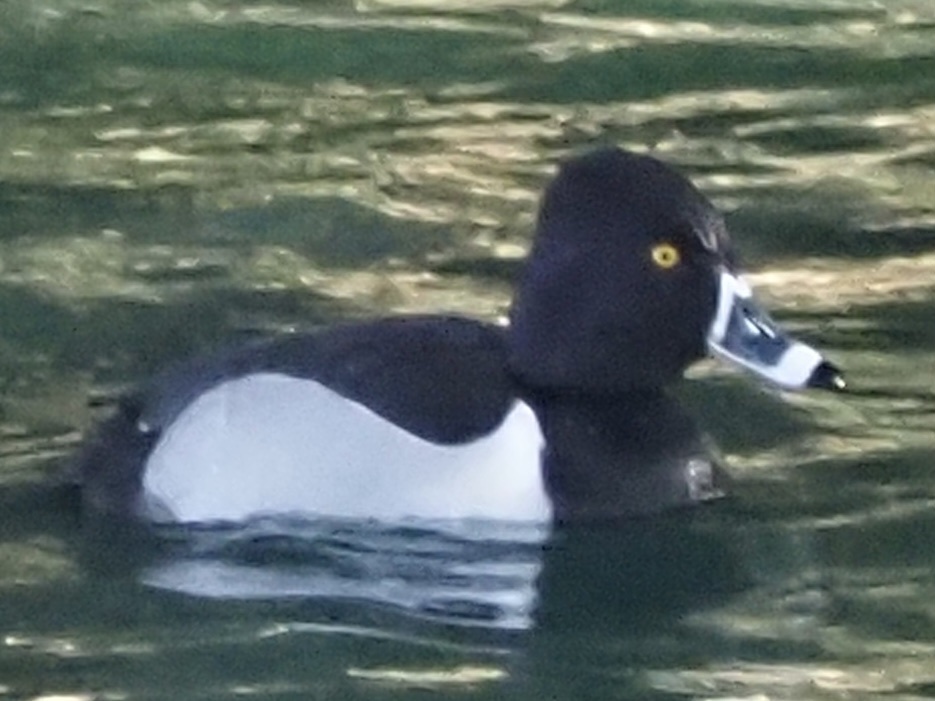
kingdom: Animalia
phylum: Chordata
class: Aves
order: Anseriformes
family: Anatidae
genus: Aythya
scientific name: Aythya collaris
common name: Ring-necked duck
